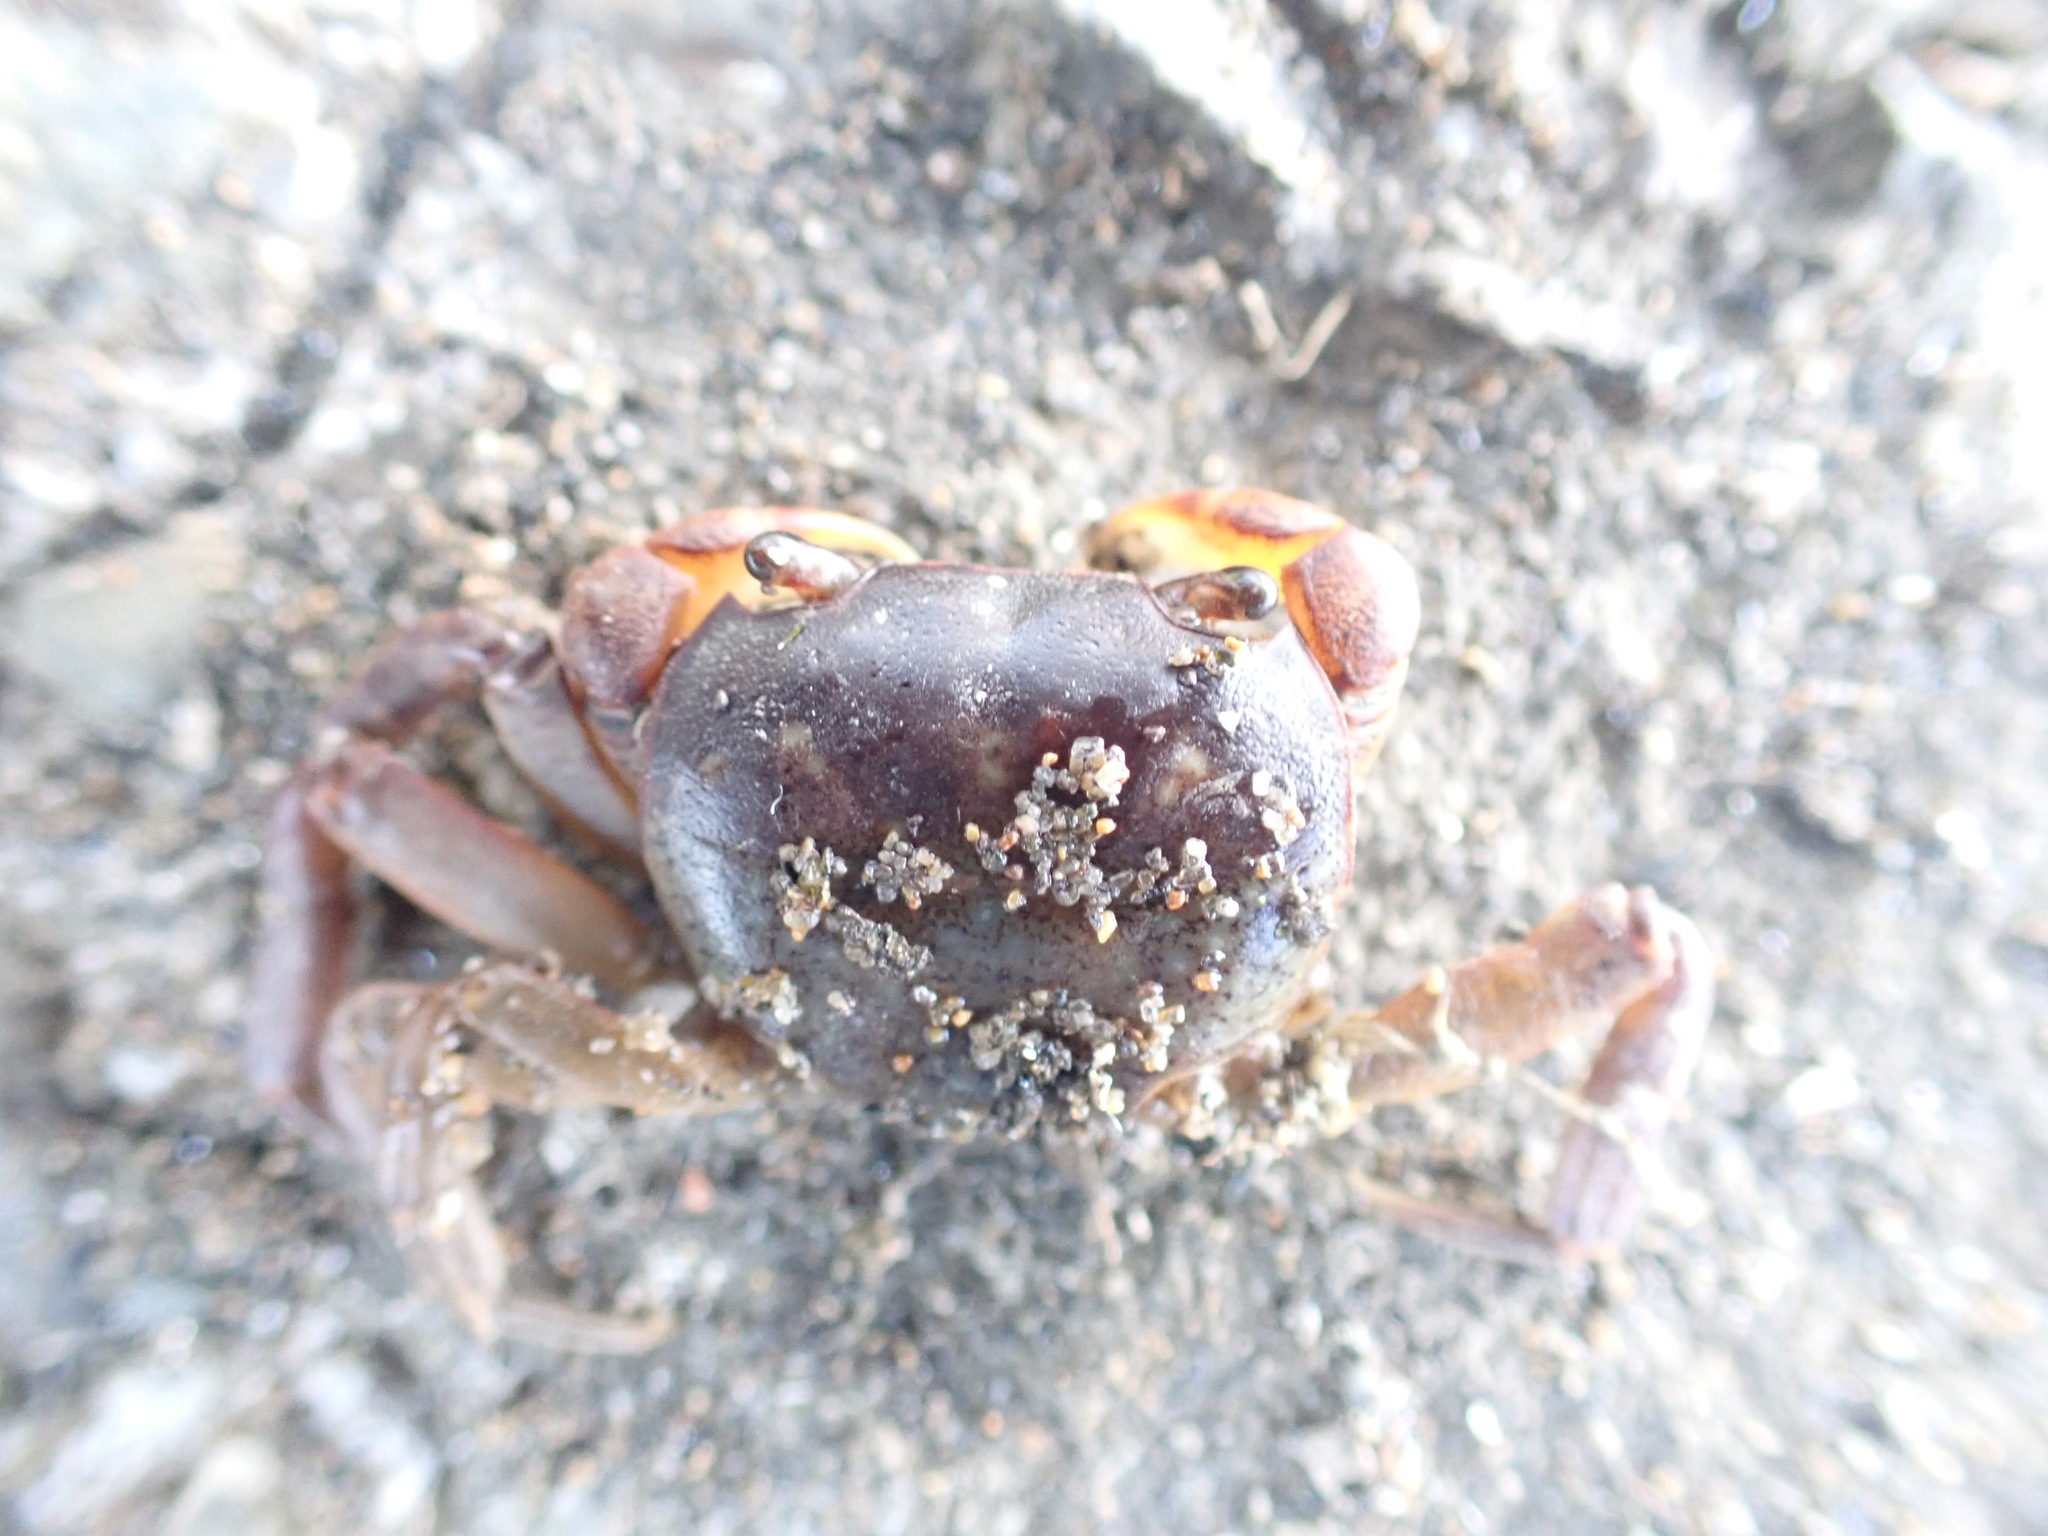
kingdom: Animalia
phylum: Arthropoda
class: Malacostraca
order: Decapoda
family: Varunidae
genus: Cyclograpsus
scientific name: Cyclograpsus lavauxi
